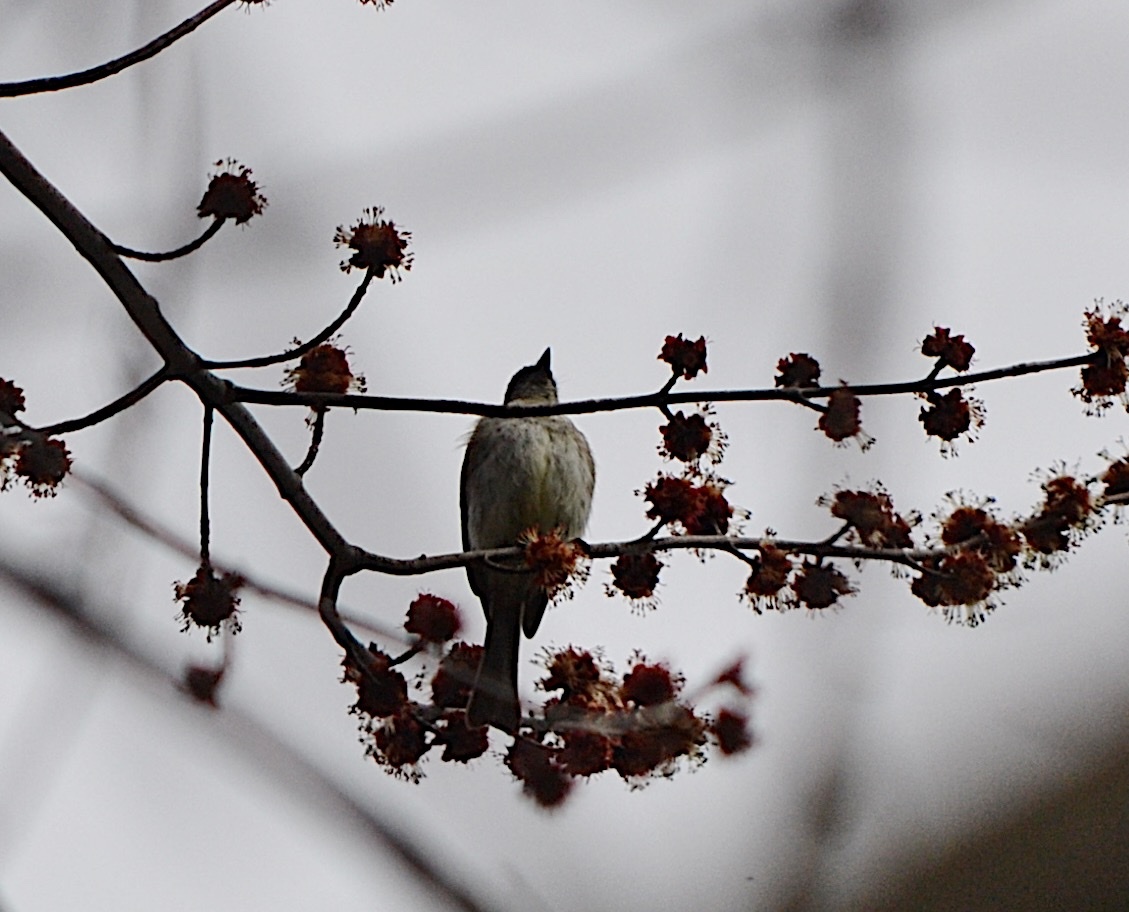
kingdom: Animalia
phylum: Chordata
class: Aves
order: Passeriformes
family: Tyrannidae
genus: Sayornis
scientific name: Sayornis phoebe
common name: Eastern phoebe
